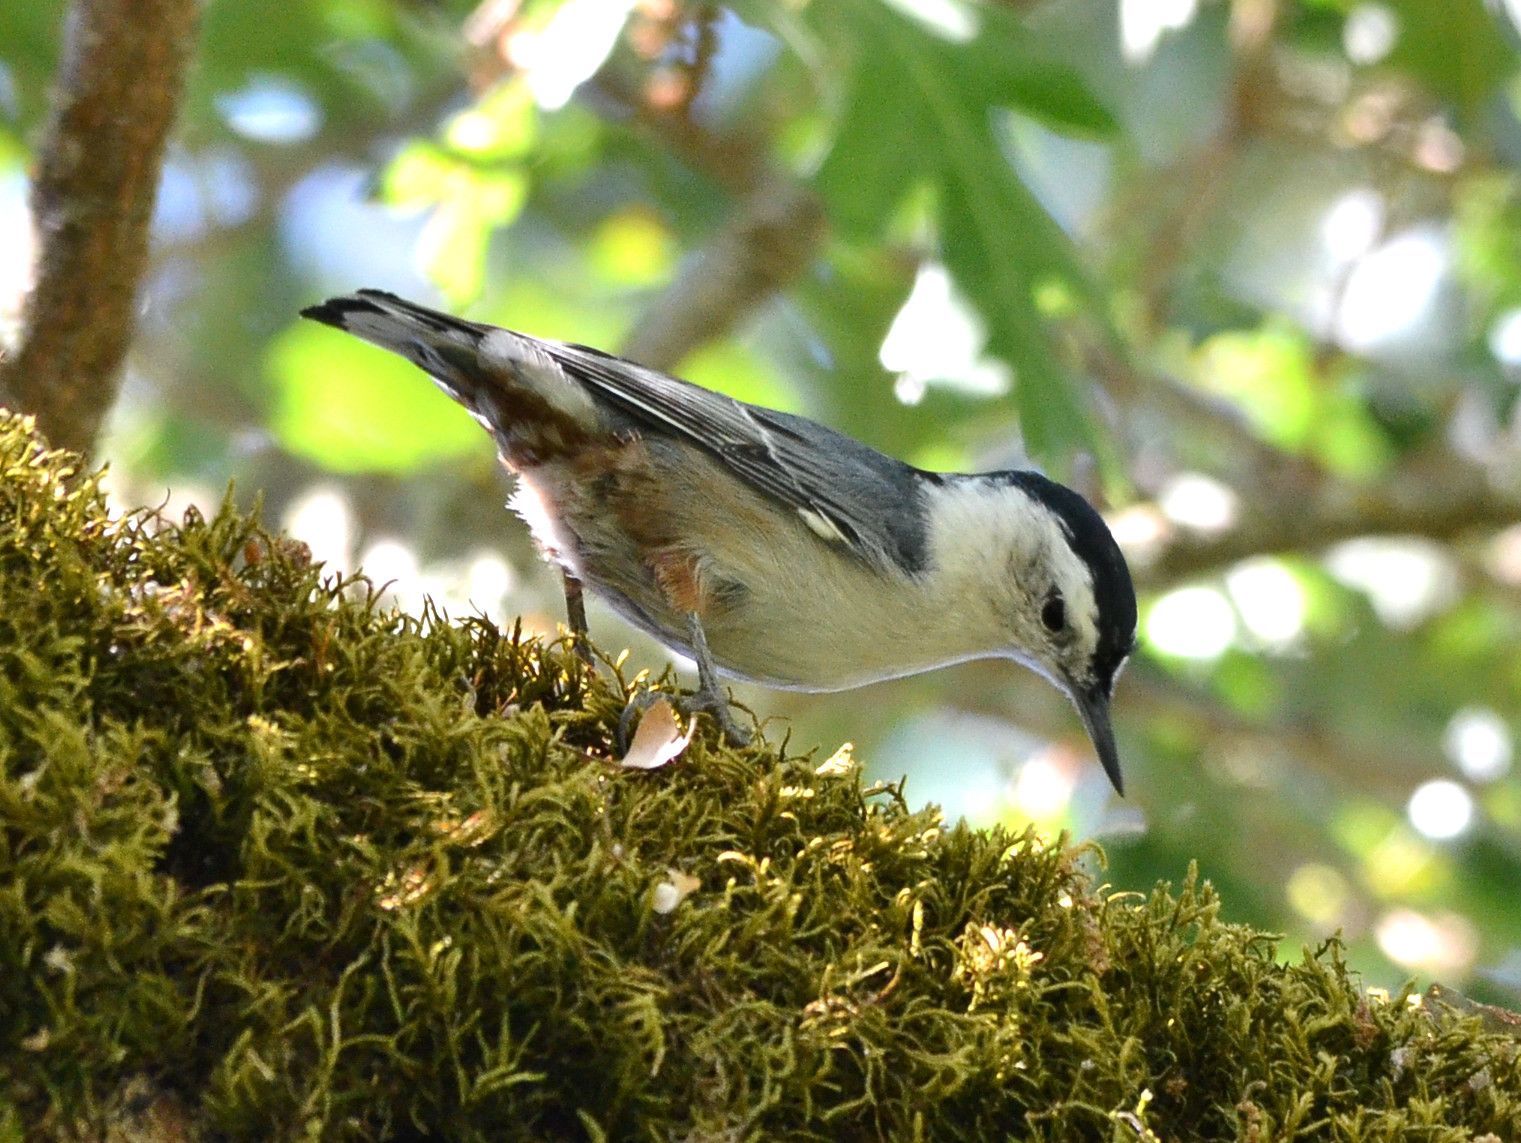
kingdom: Animalia
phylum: Chordata
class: Aves
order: Passeriformes
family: Sittidae
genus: Sitta
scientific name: Sitta carolinensis
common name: White-breasted nuthatch
